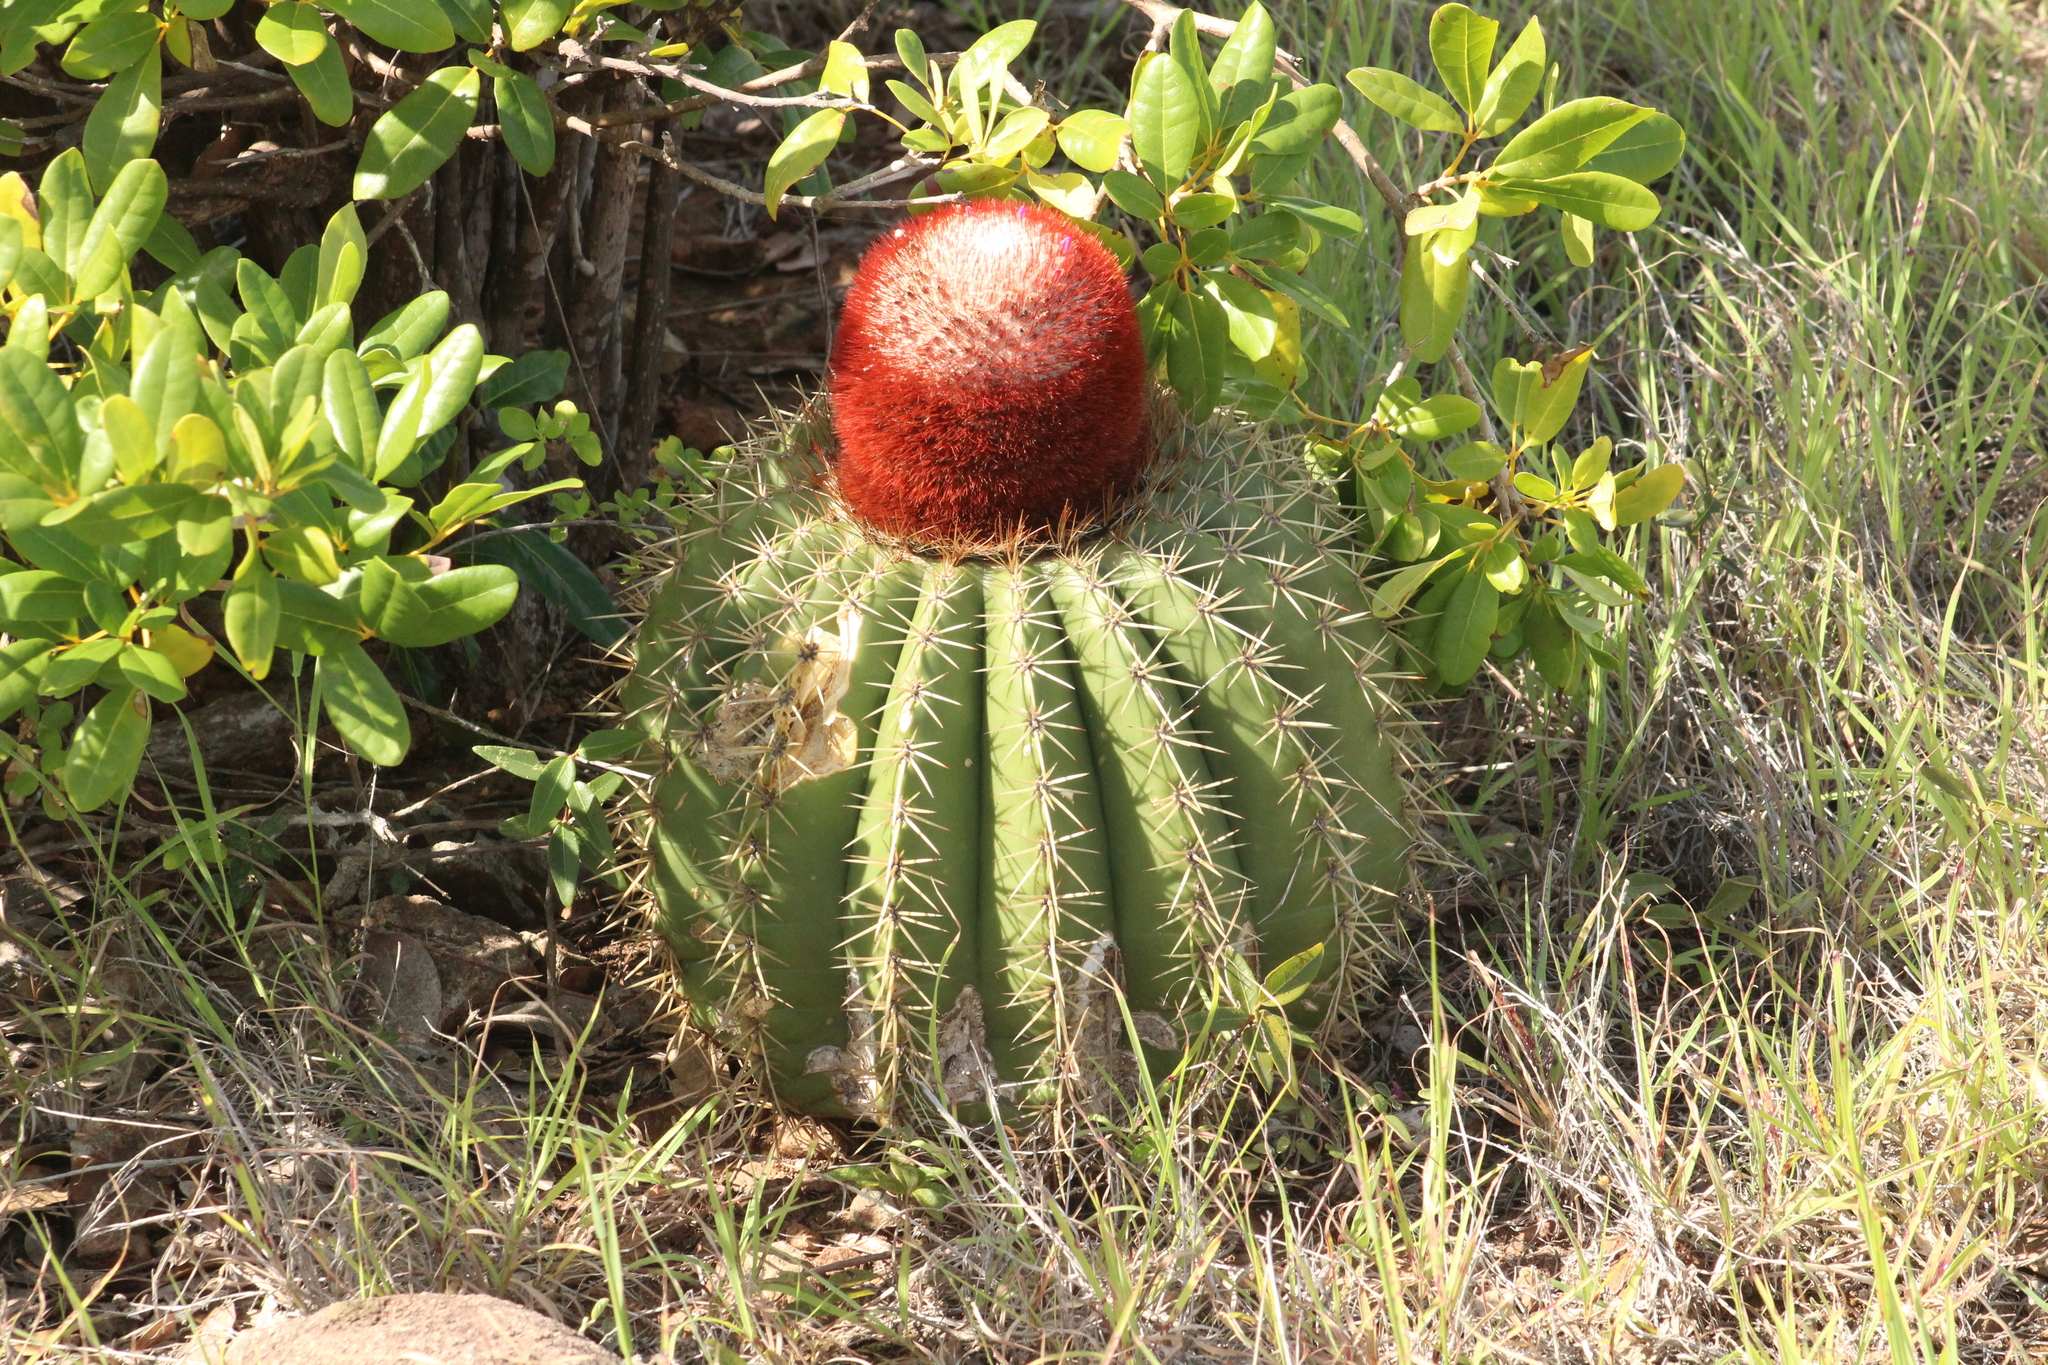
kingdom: Plantae
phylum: Tracheophyta
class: Magnoliopsida
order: Caryophyllales
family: Cactaceae
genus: Melocactus
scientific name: Melocactus intortus
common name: Barrel cactus
